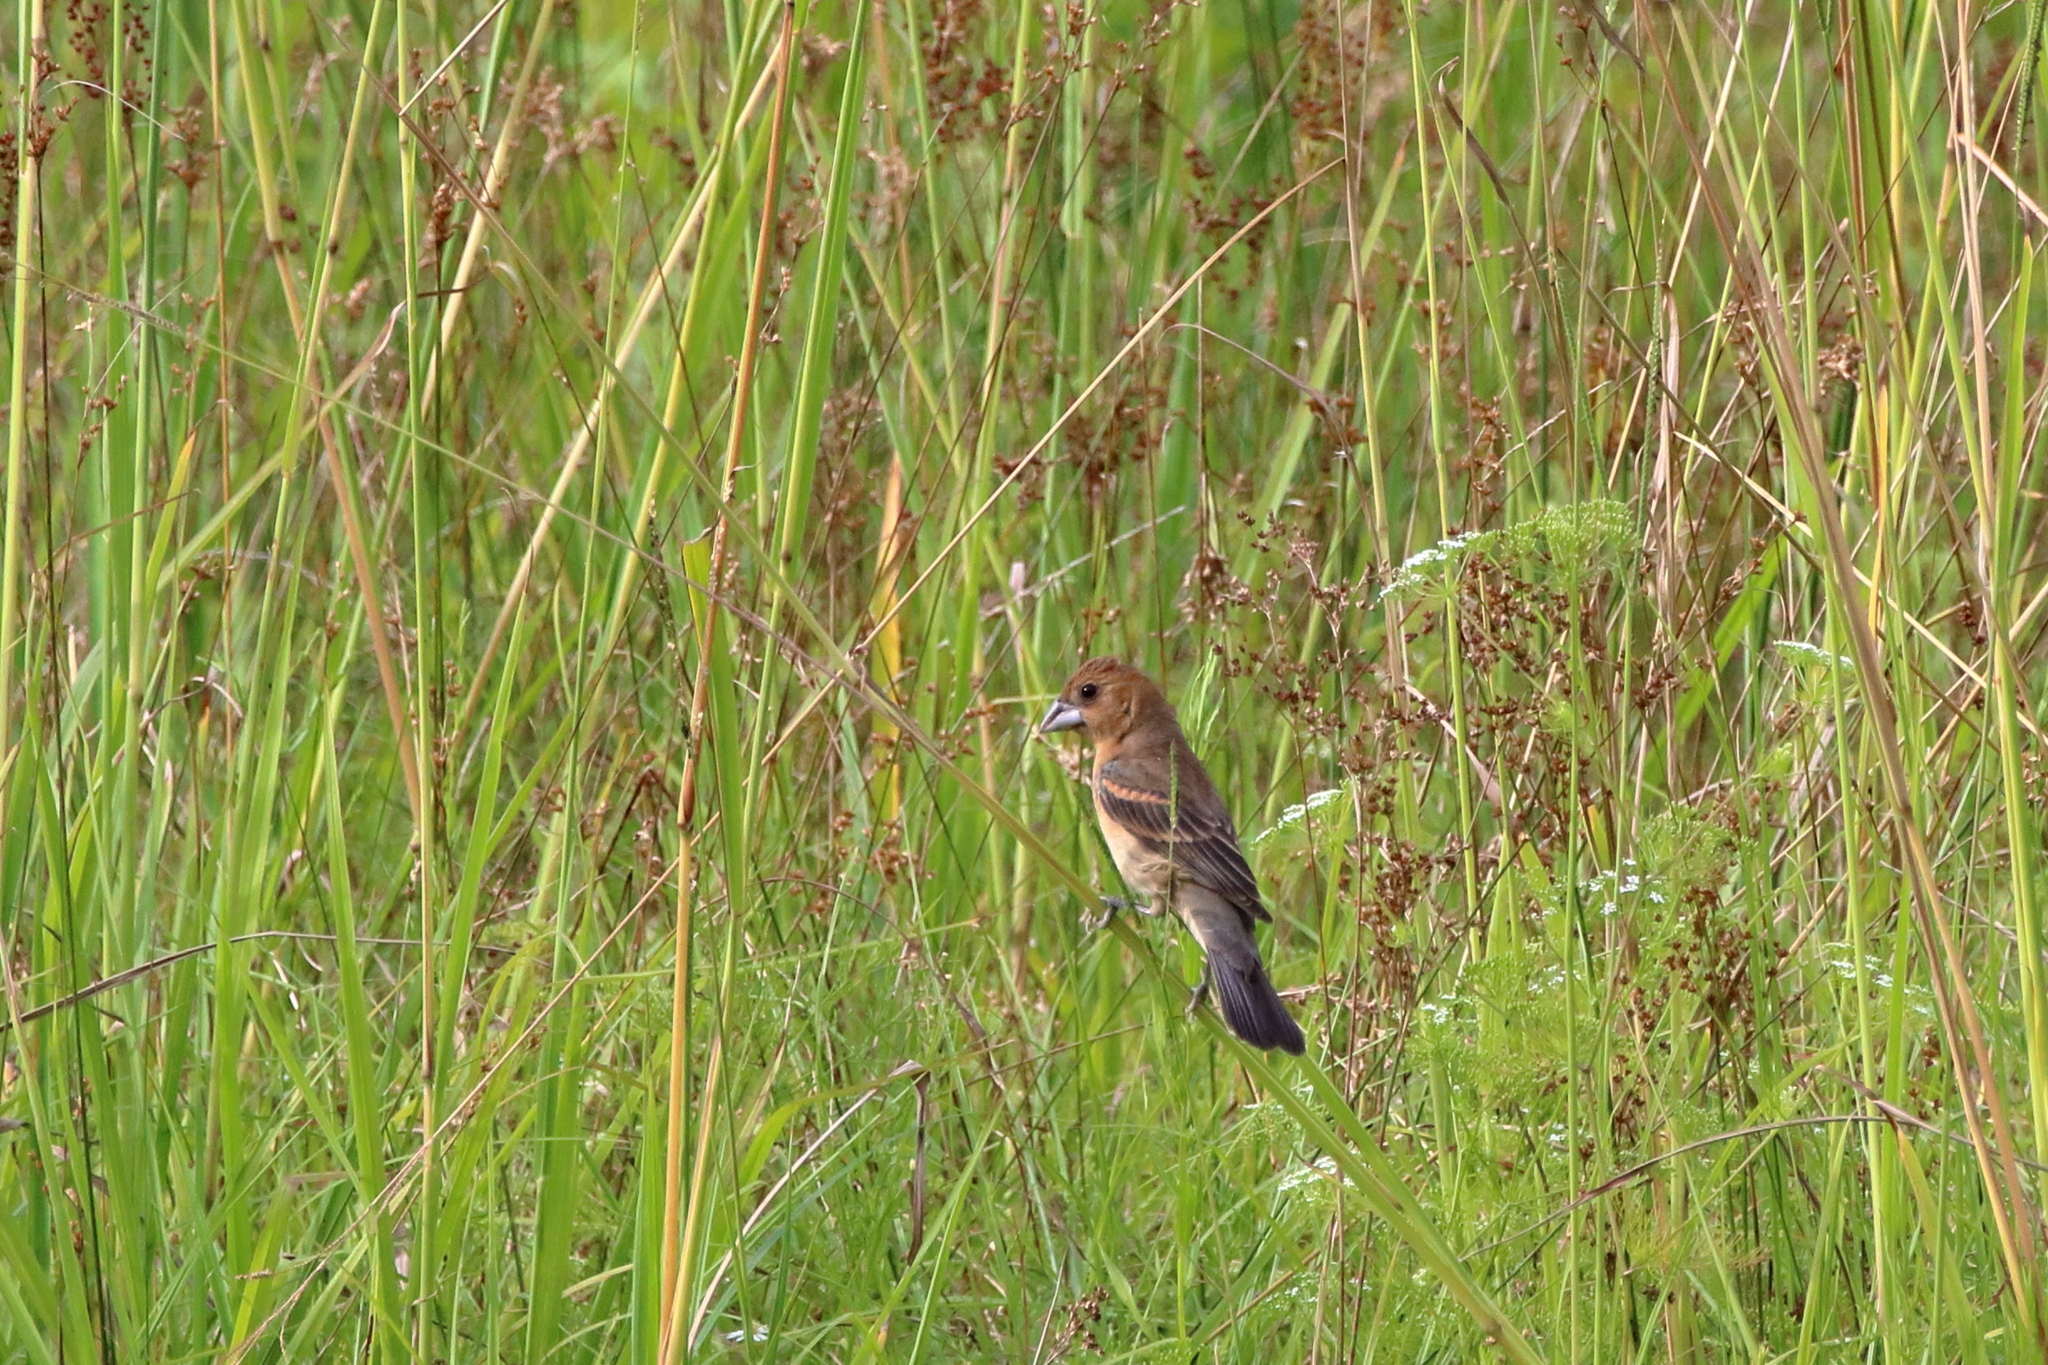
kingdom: Animalia
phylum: Chordata
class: Aves
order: Passeriformes
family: Cardinalidae
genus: Passerina
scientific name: Passerina caerulea
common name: Blue grosbeak
